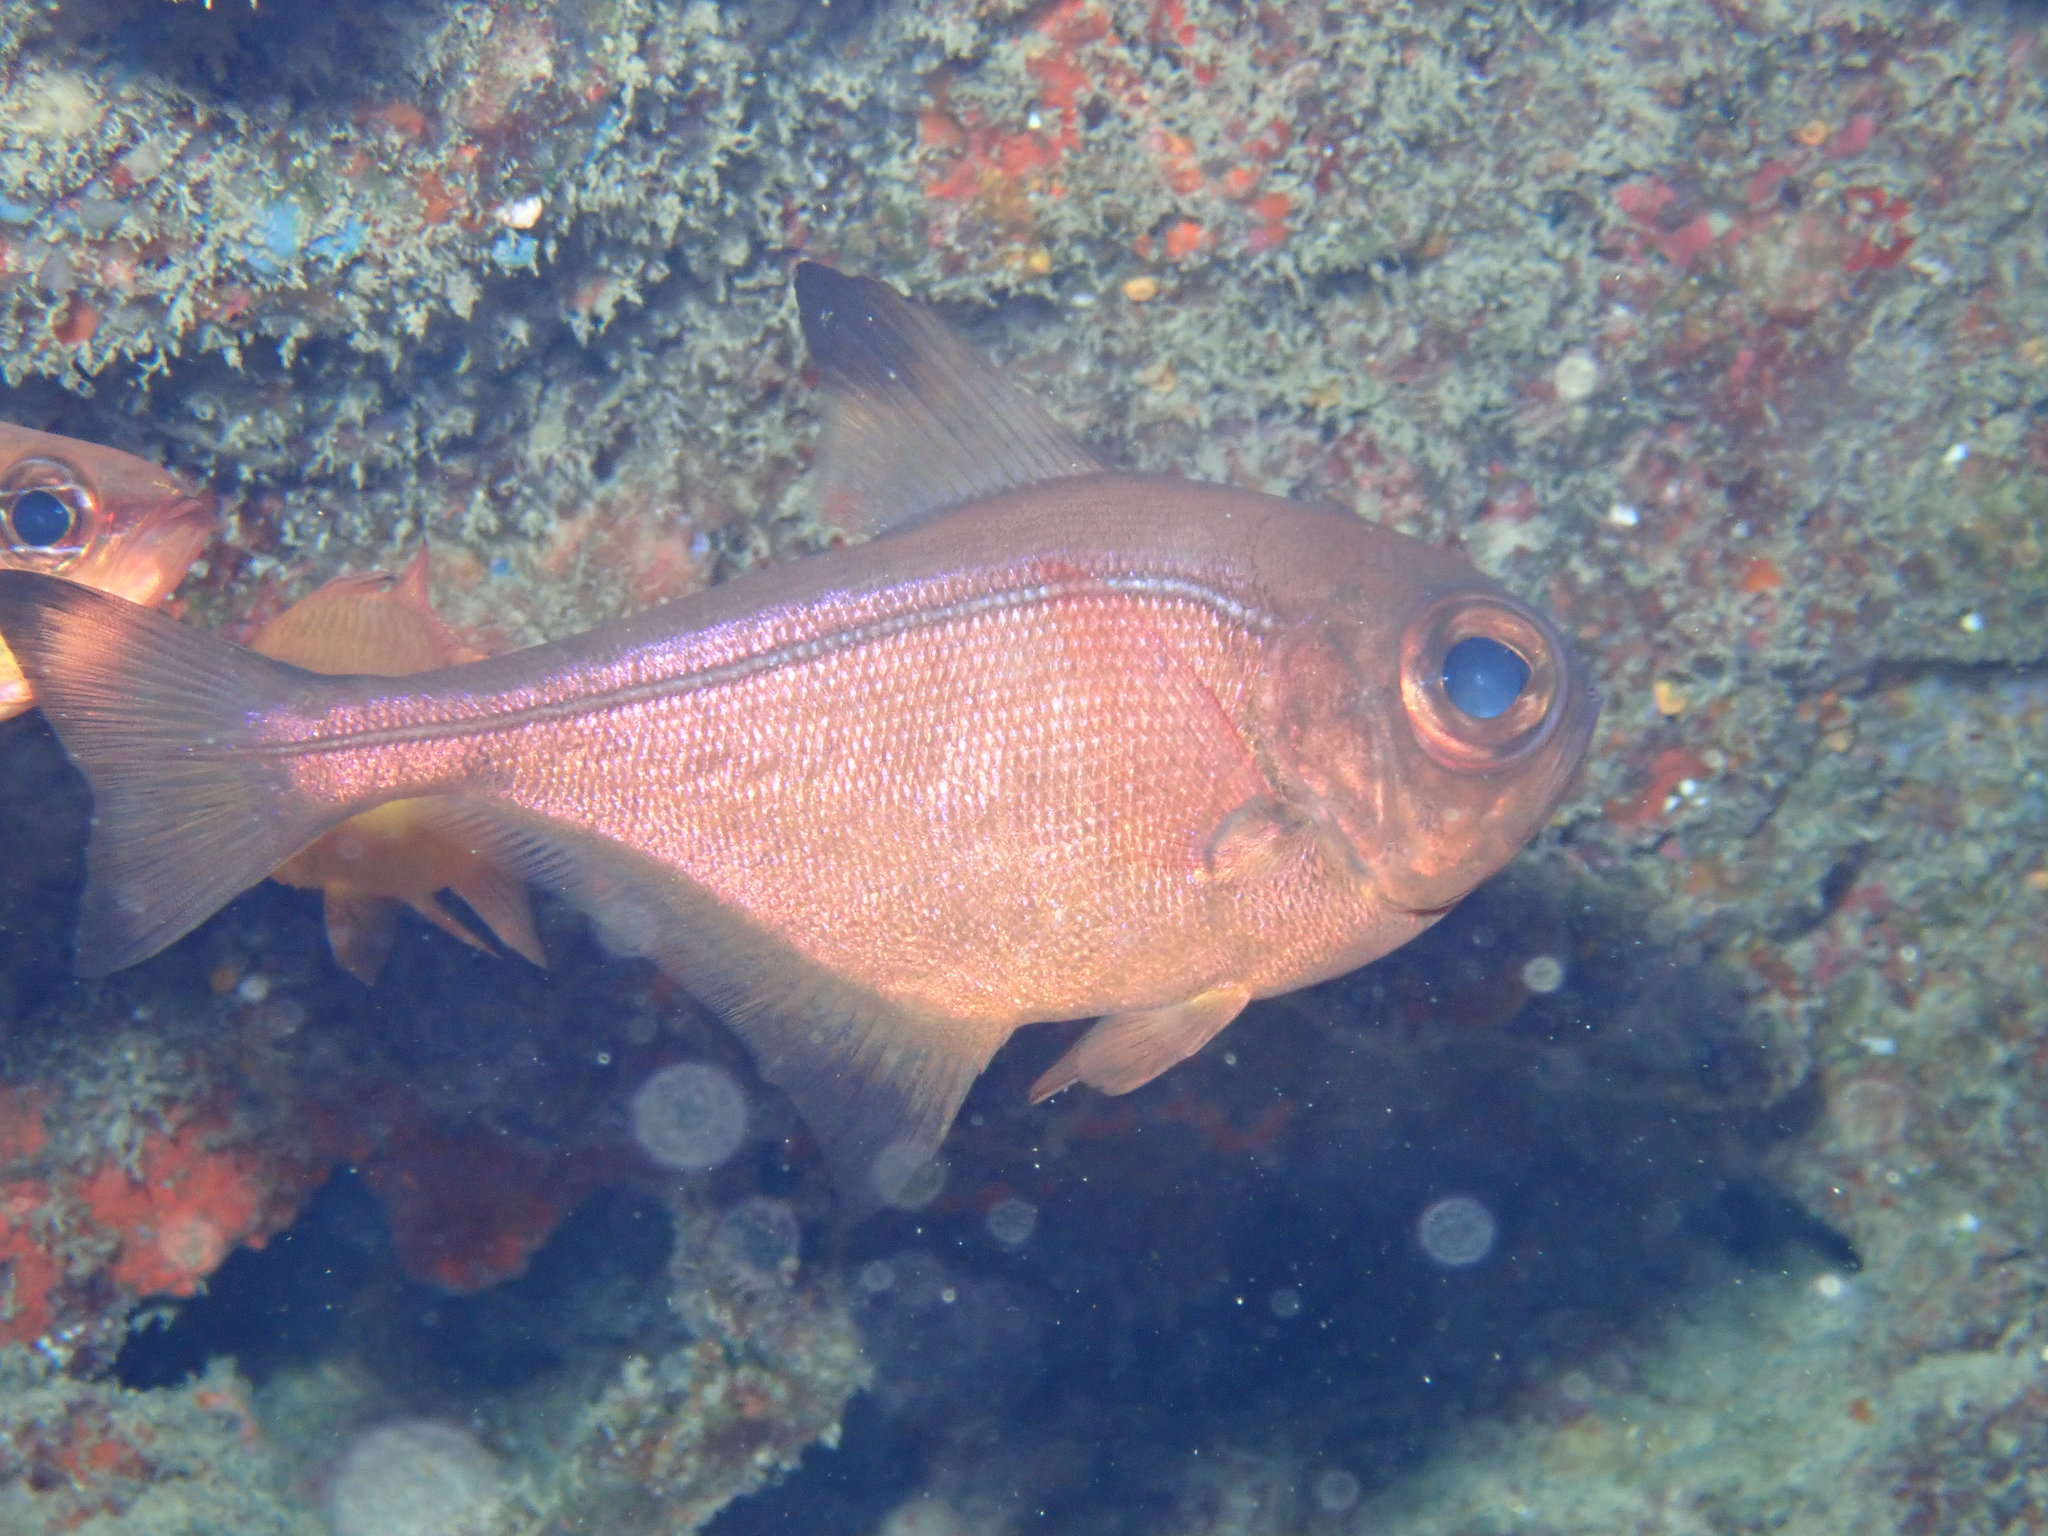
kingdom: Animalia
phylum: Chordata
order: Perciformes
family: Pempheridae
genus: Pempheris
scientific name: Pempheris analis
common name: Big eye
